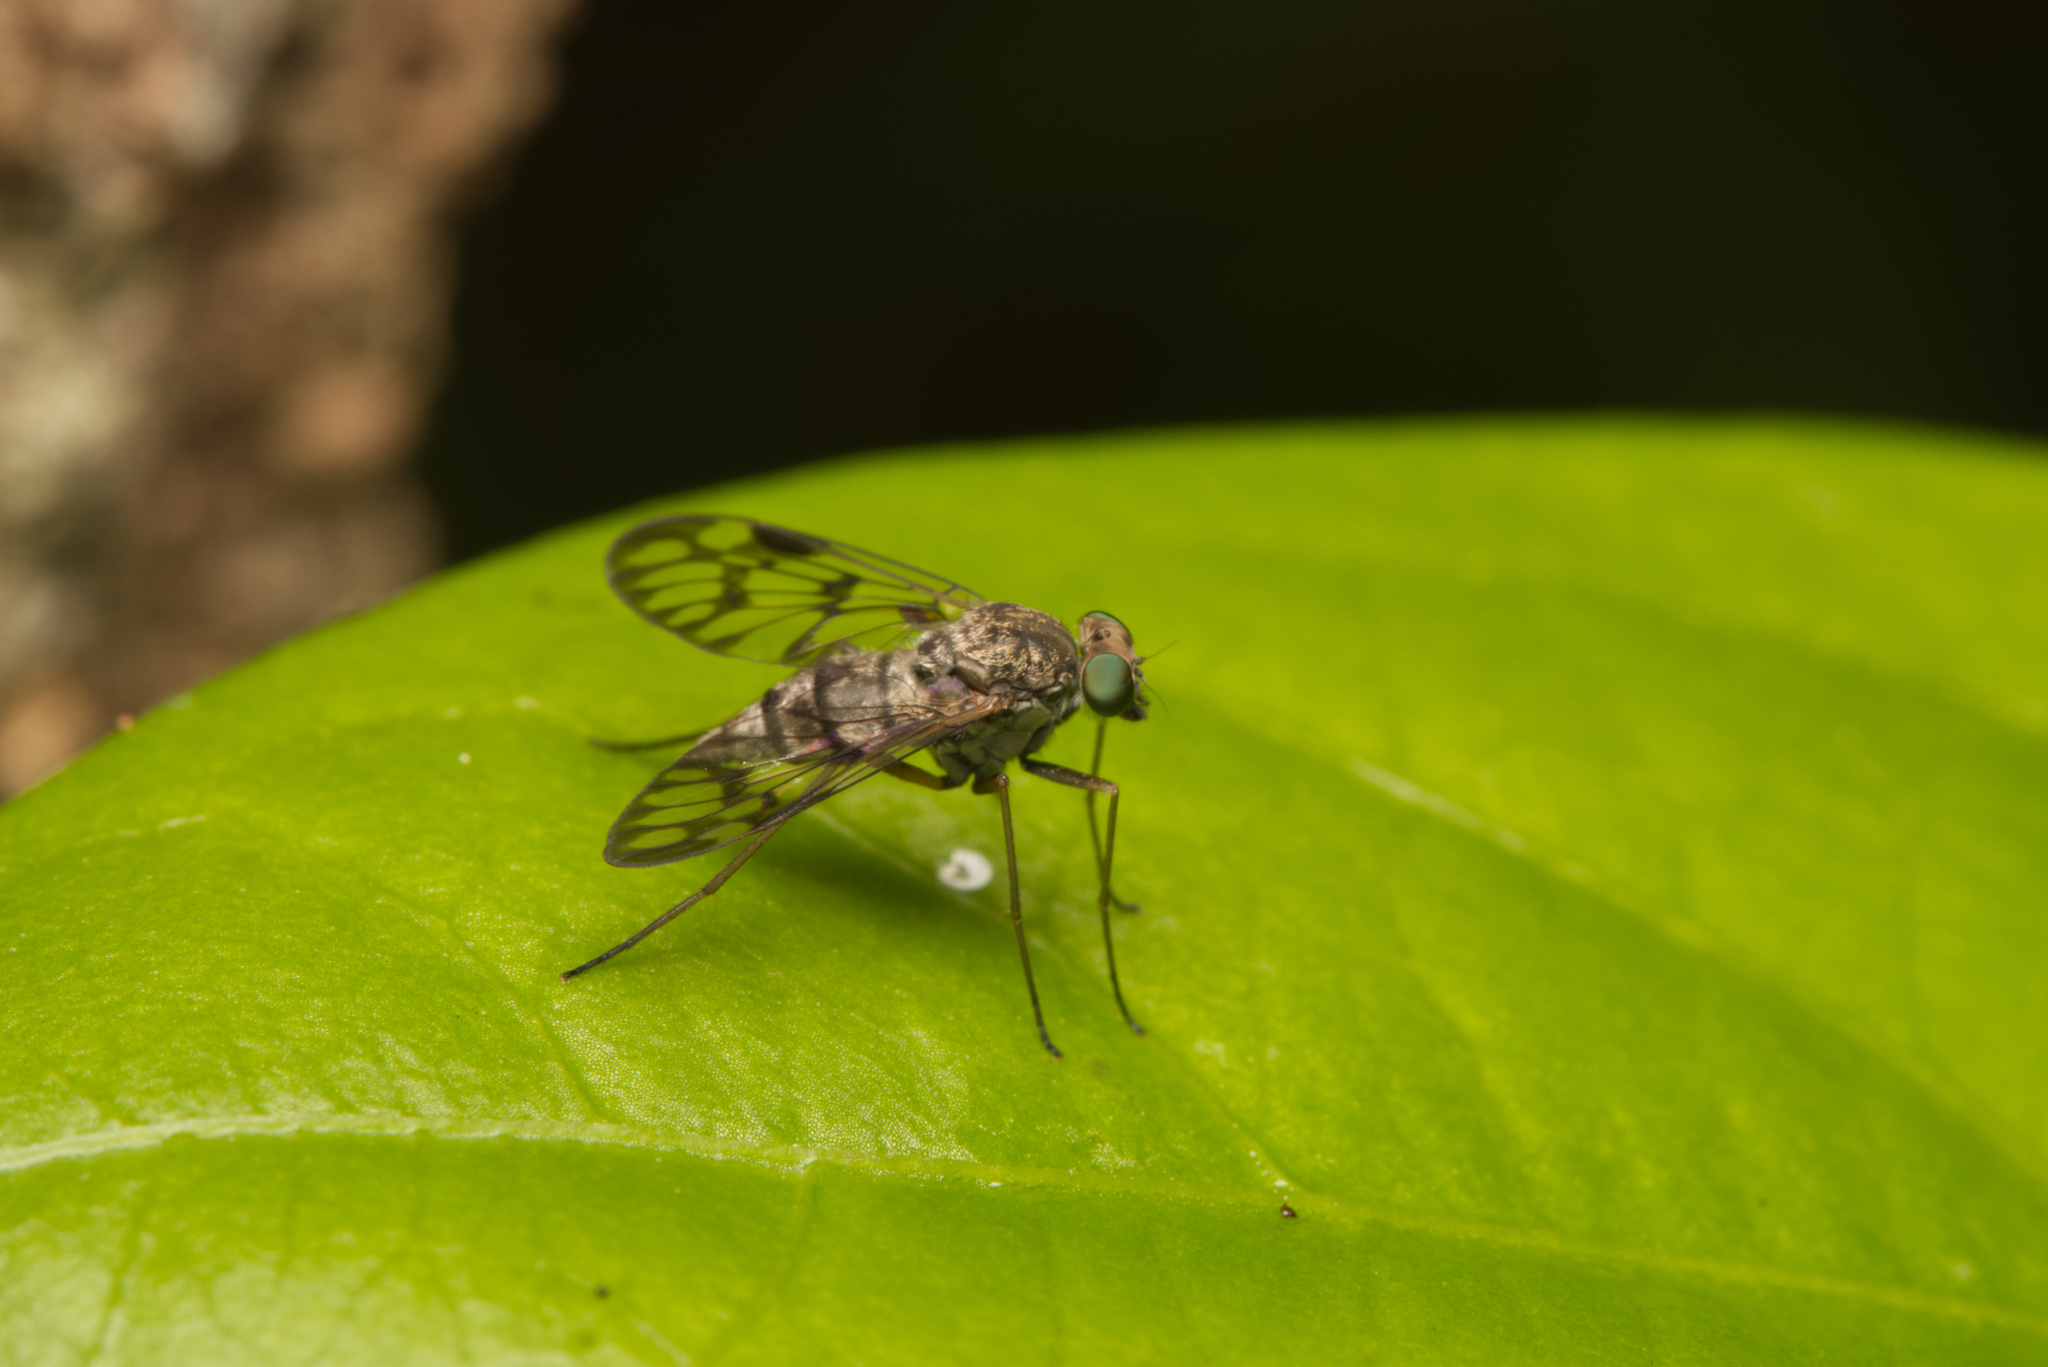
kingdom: Animalia
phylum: Arthropoda
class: Insecta
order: Diptera
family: Rhagionidae
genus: Chrysopilus
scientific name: Chrysopilus mackerrasi
